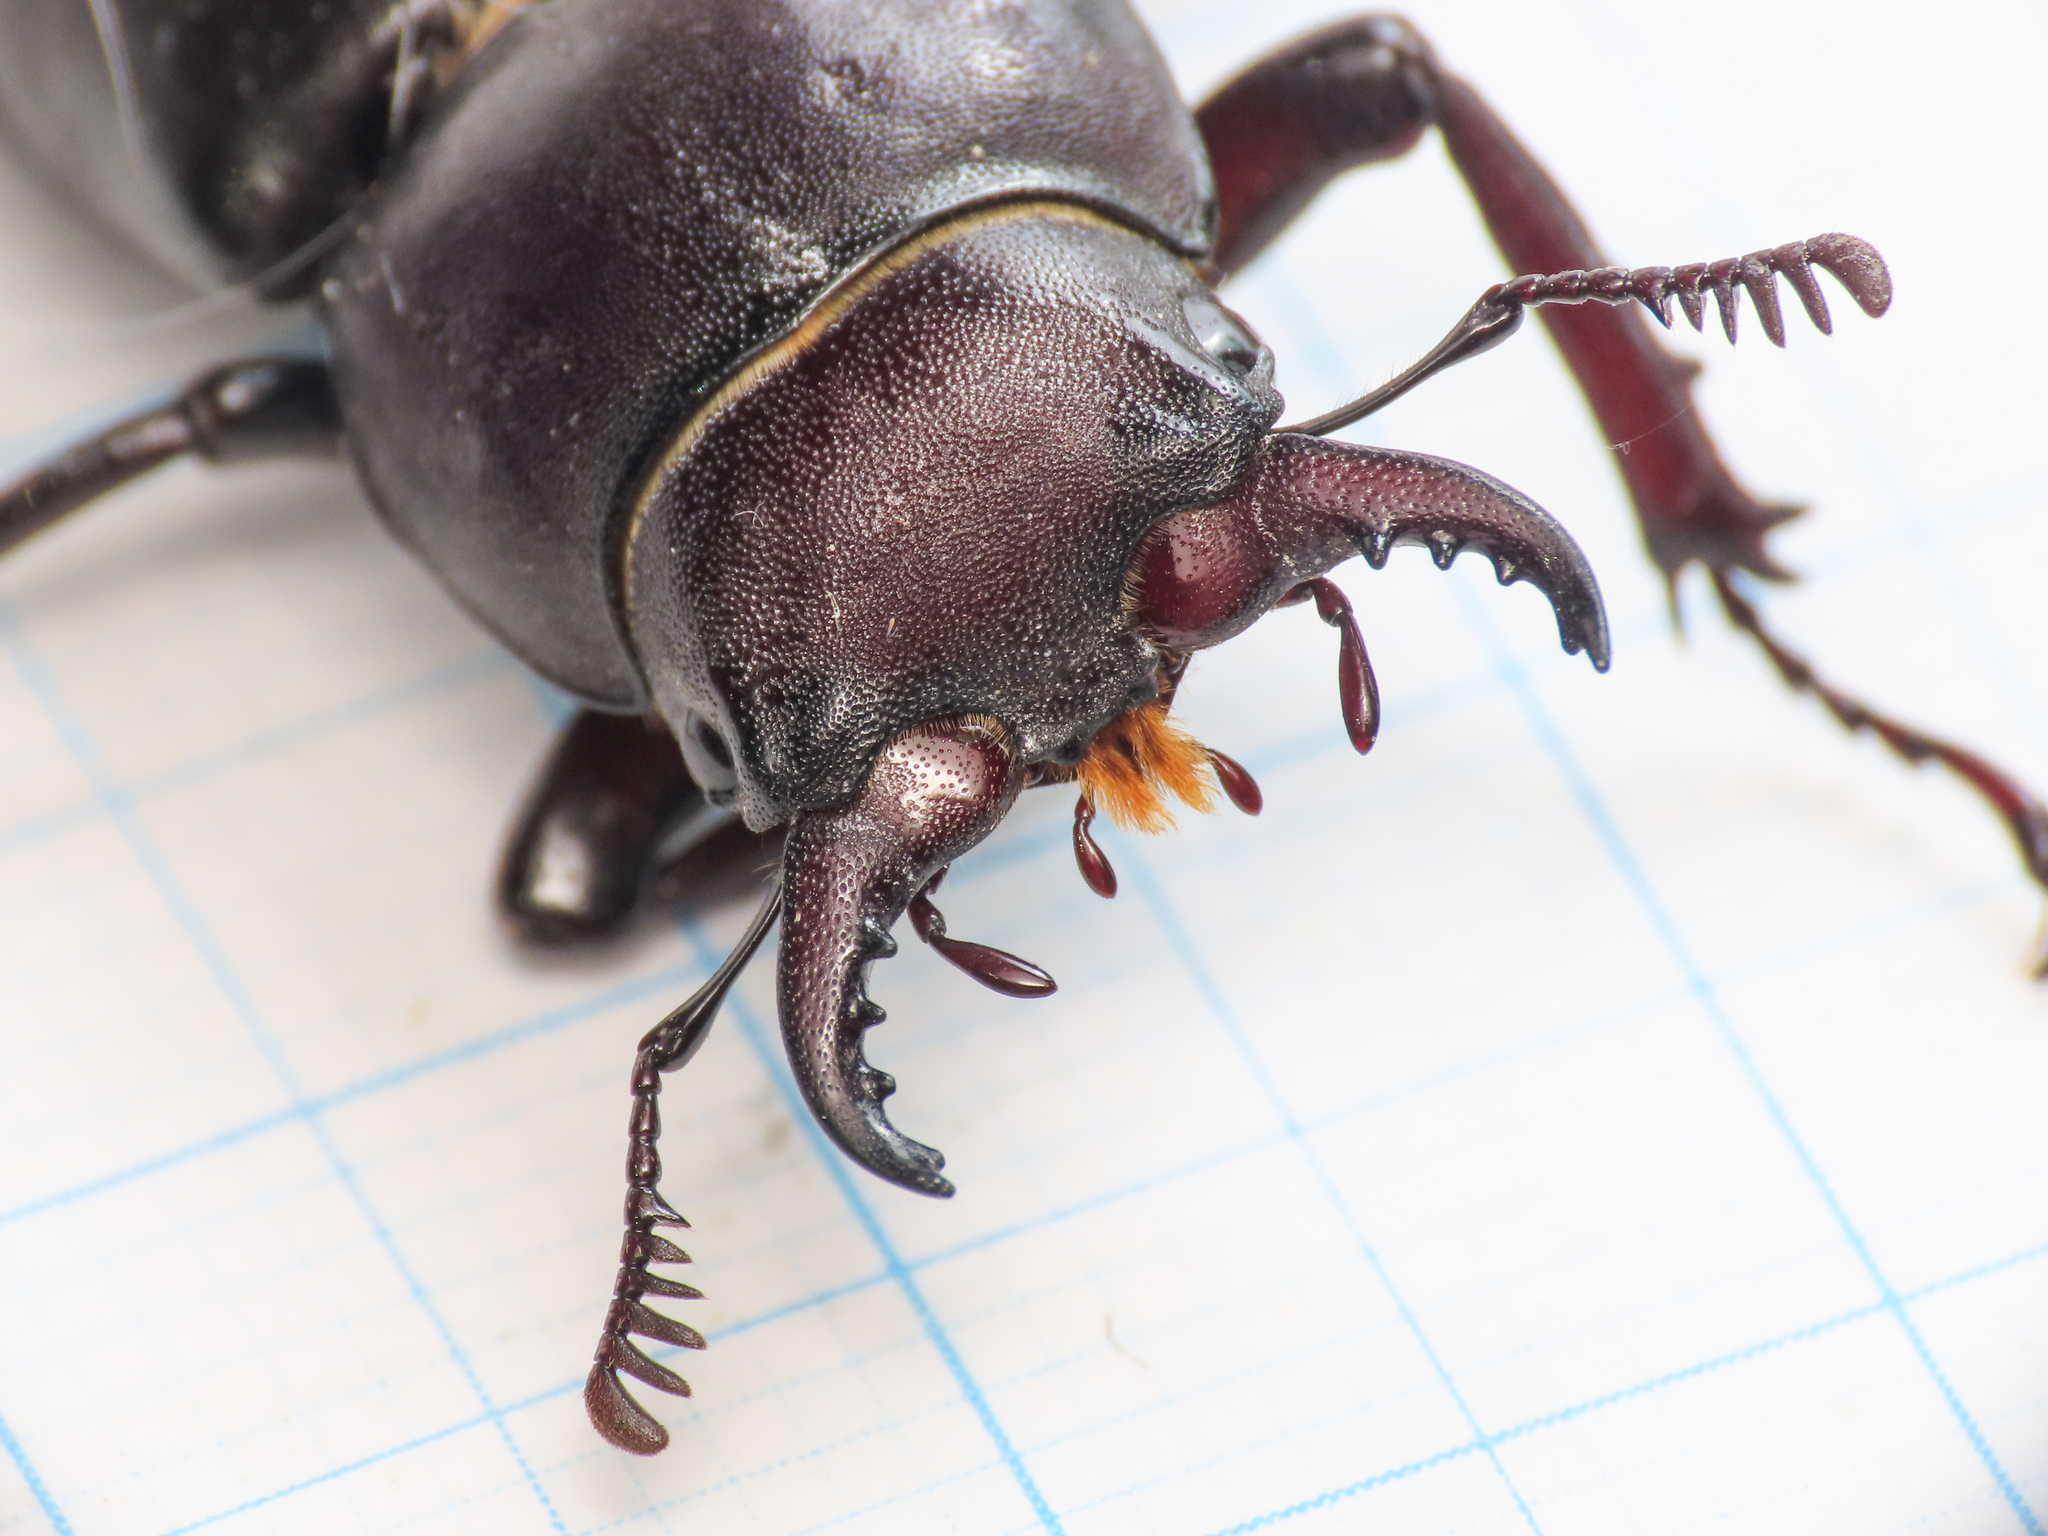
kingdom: Animalia
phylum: Arthropoda
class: Insecta
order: Coleoptera
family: Lucanidae
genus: Lucanus
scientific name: Lucanus tetraodon
